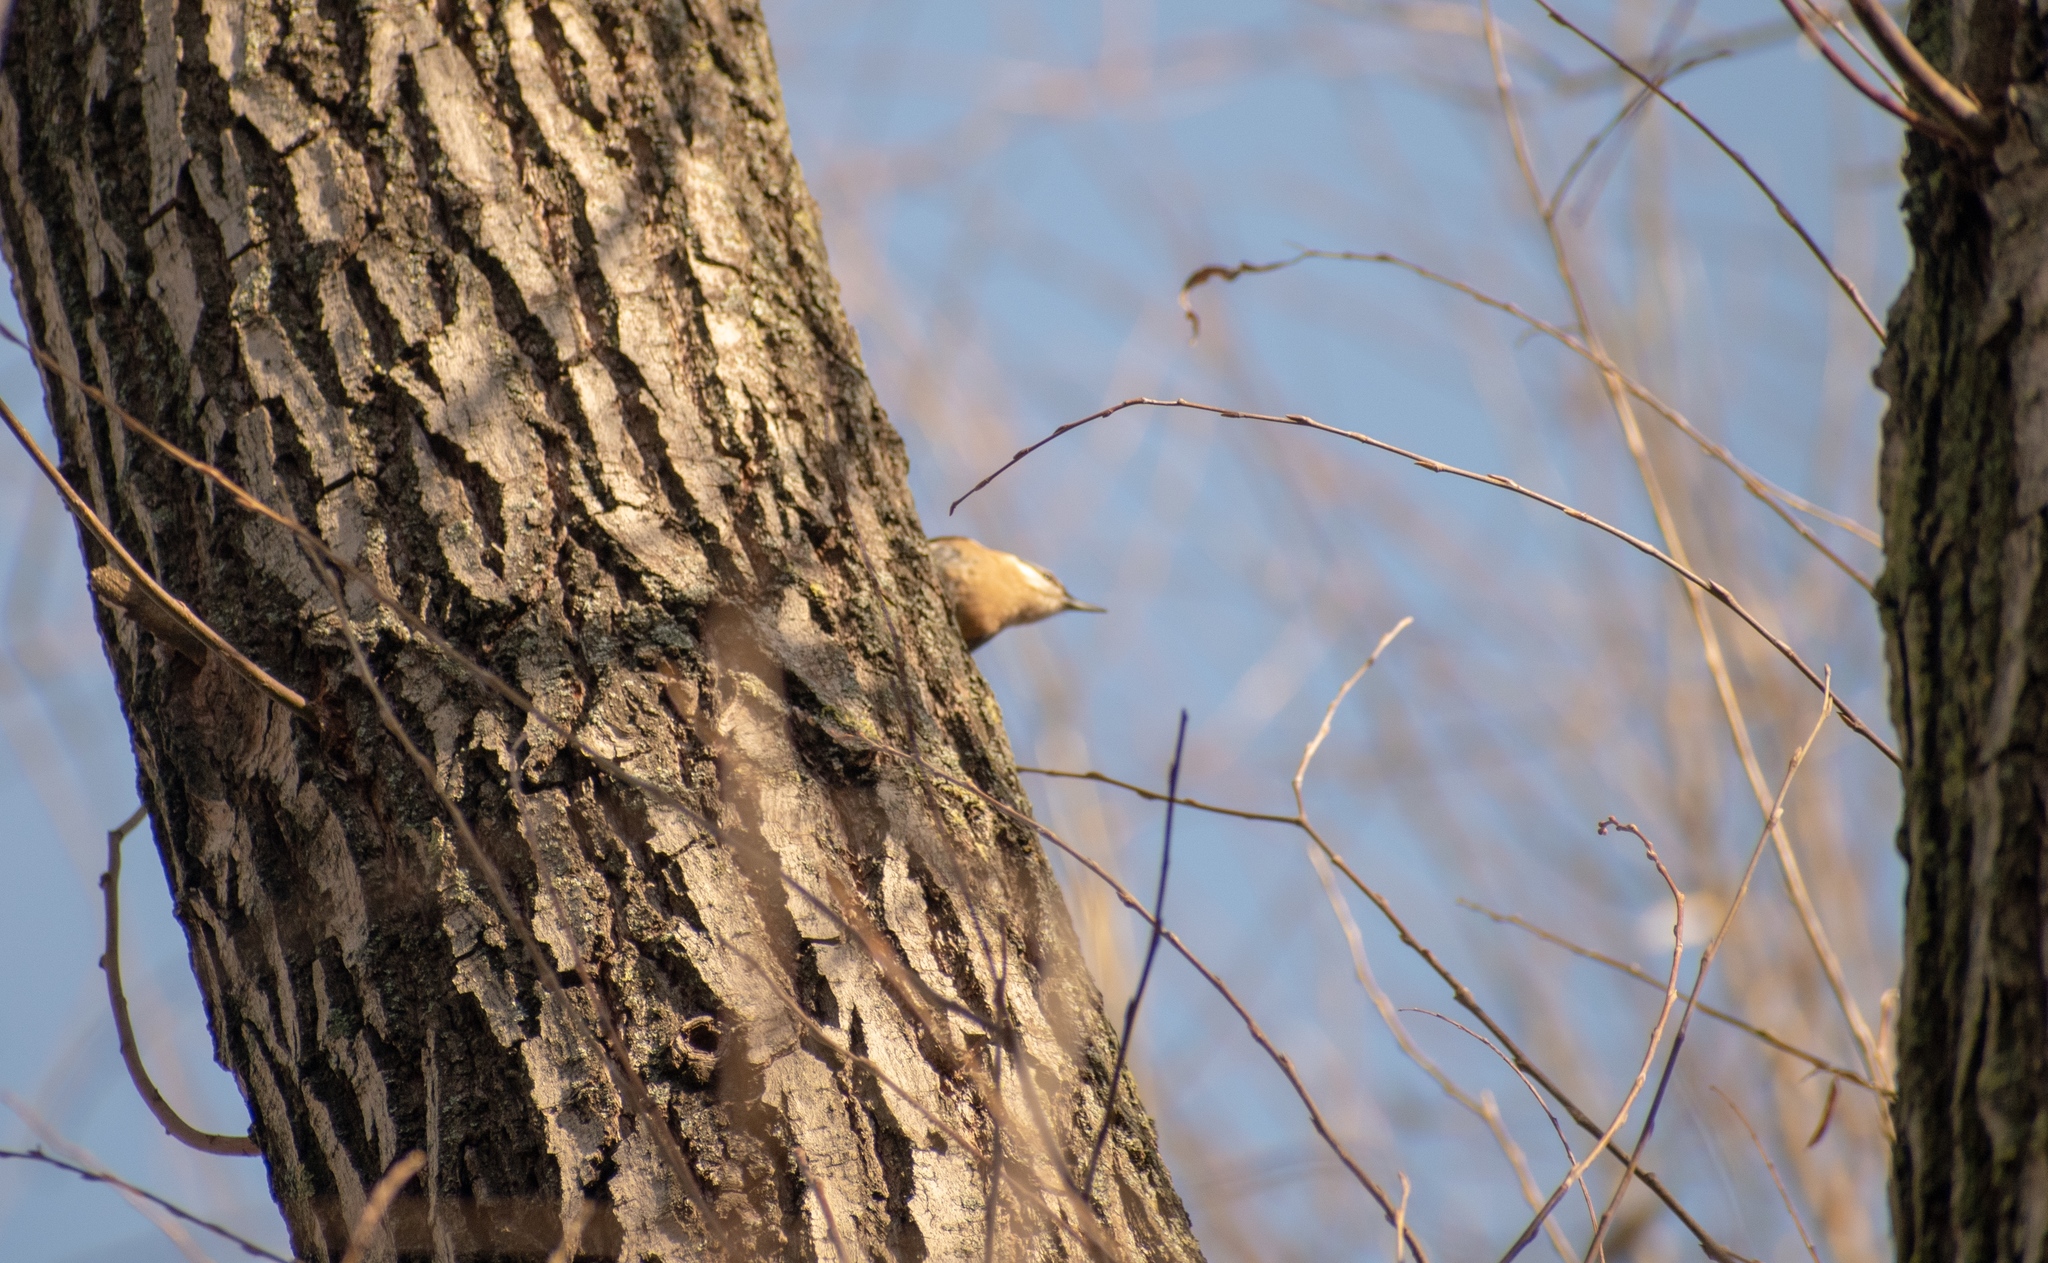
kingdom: Animalia
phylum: Chordata
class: Aves
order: Passeriformes
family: Sittidae
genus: Sitta
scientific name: Sitta europaea
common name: Eurasian nuthatch
